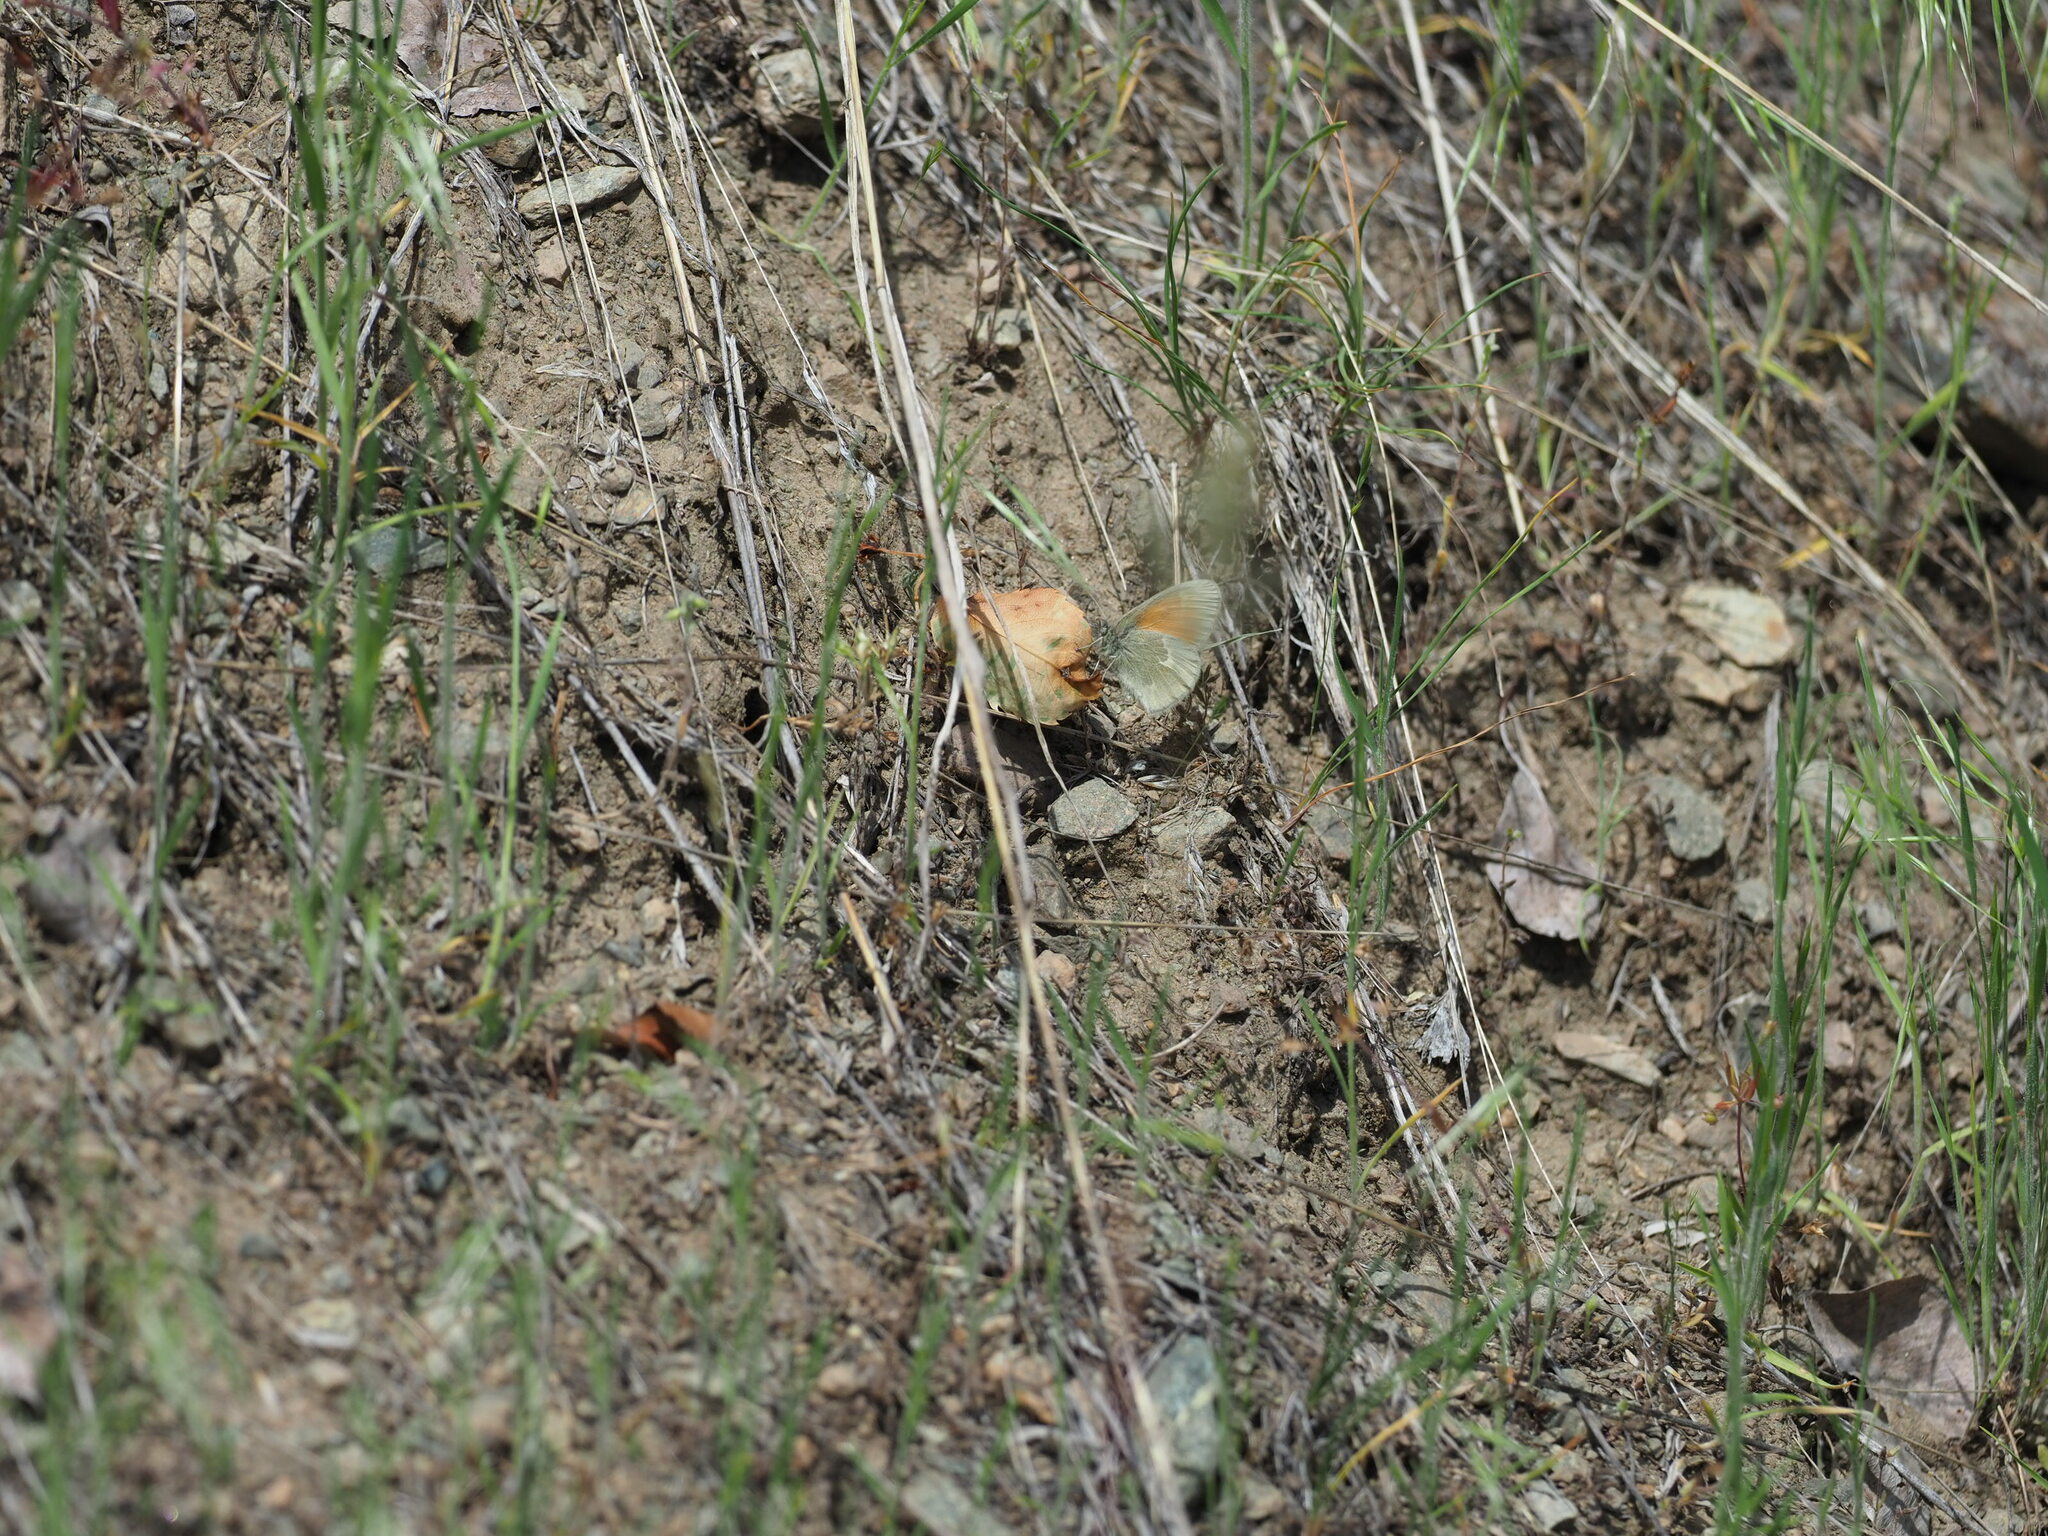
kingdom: Animalia
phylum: Arthropoda
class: Insecta
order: Lepidoptera
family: Nymphalidae
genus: Coenonympha
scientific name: Coenonympha california
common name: Common ringlet
